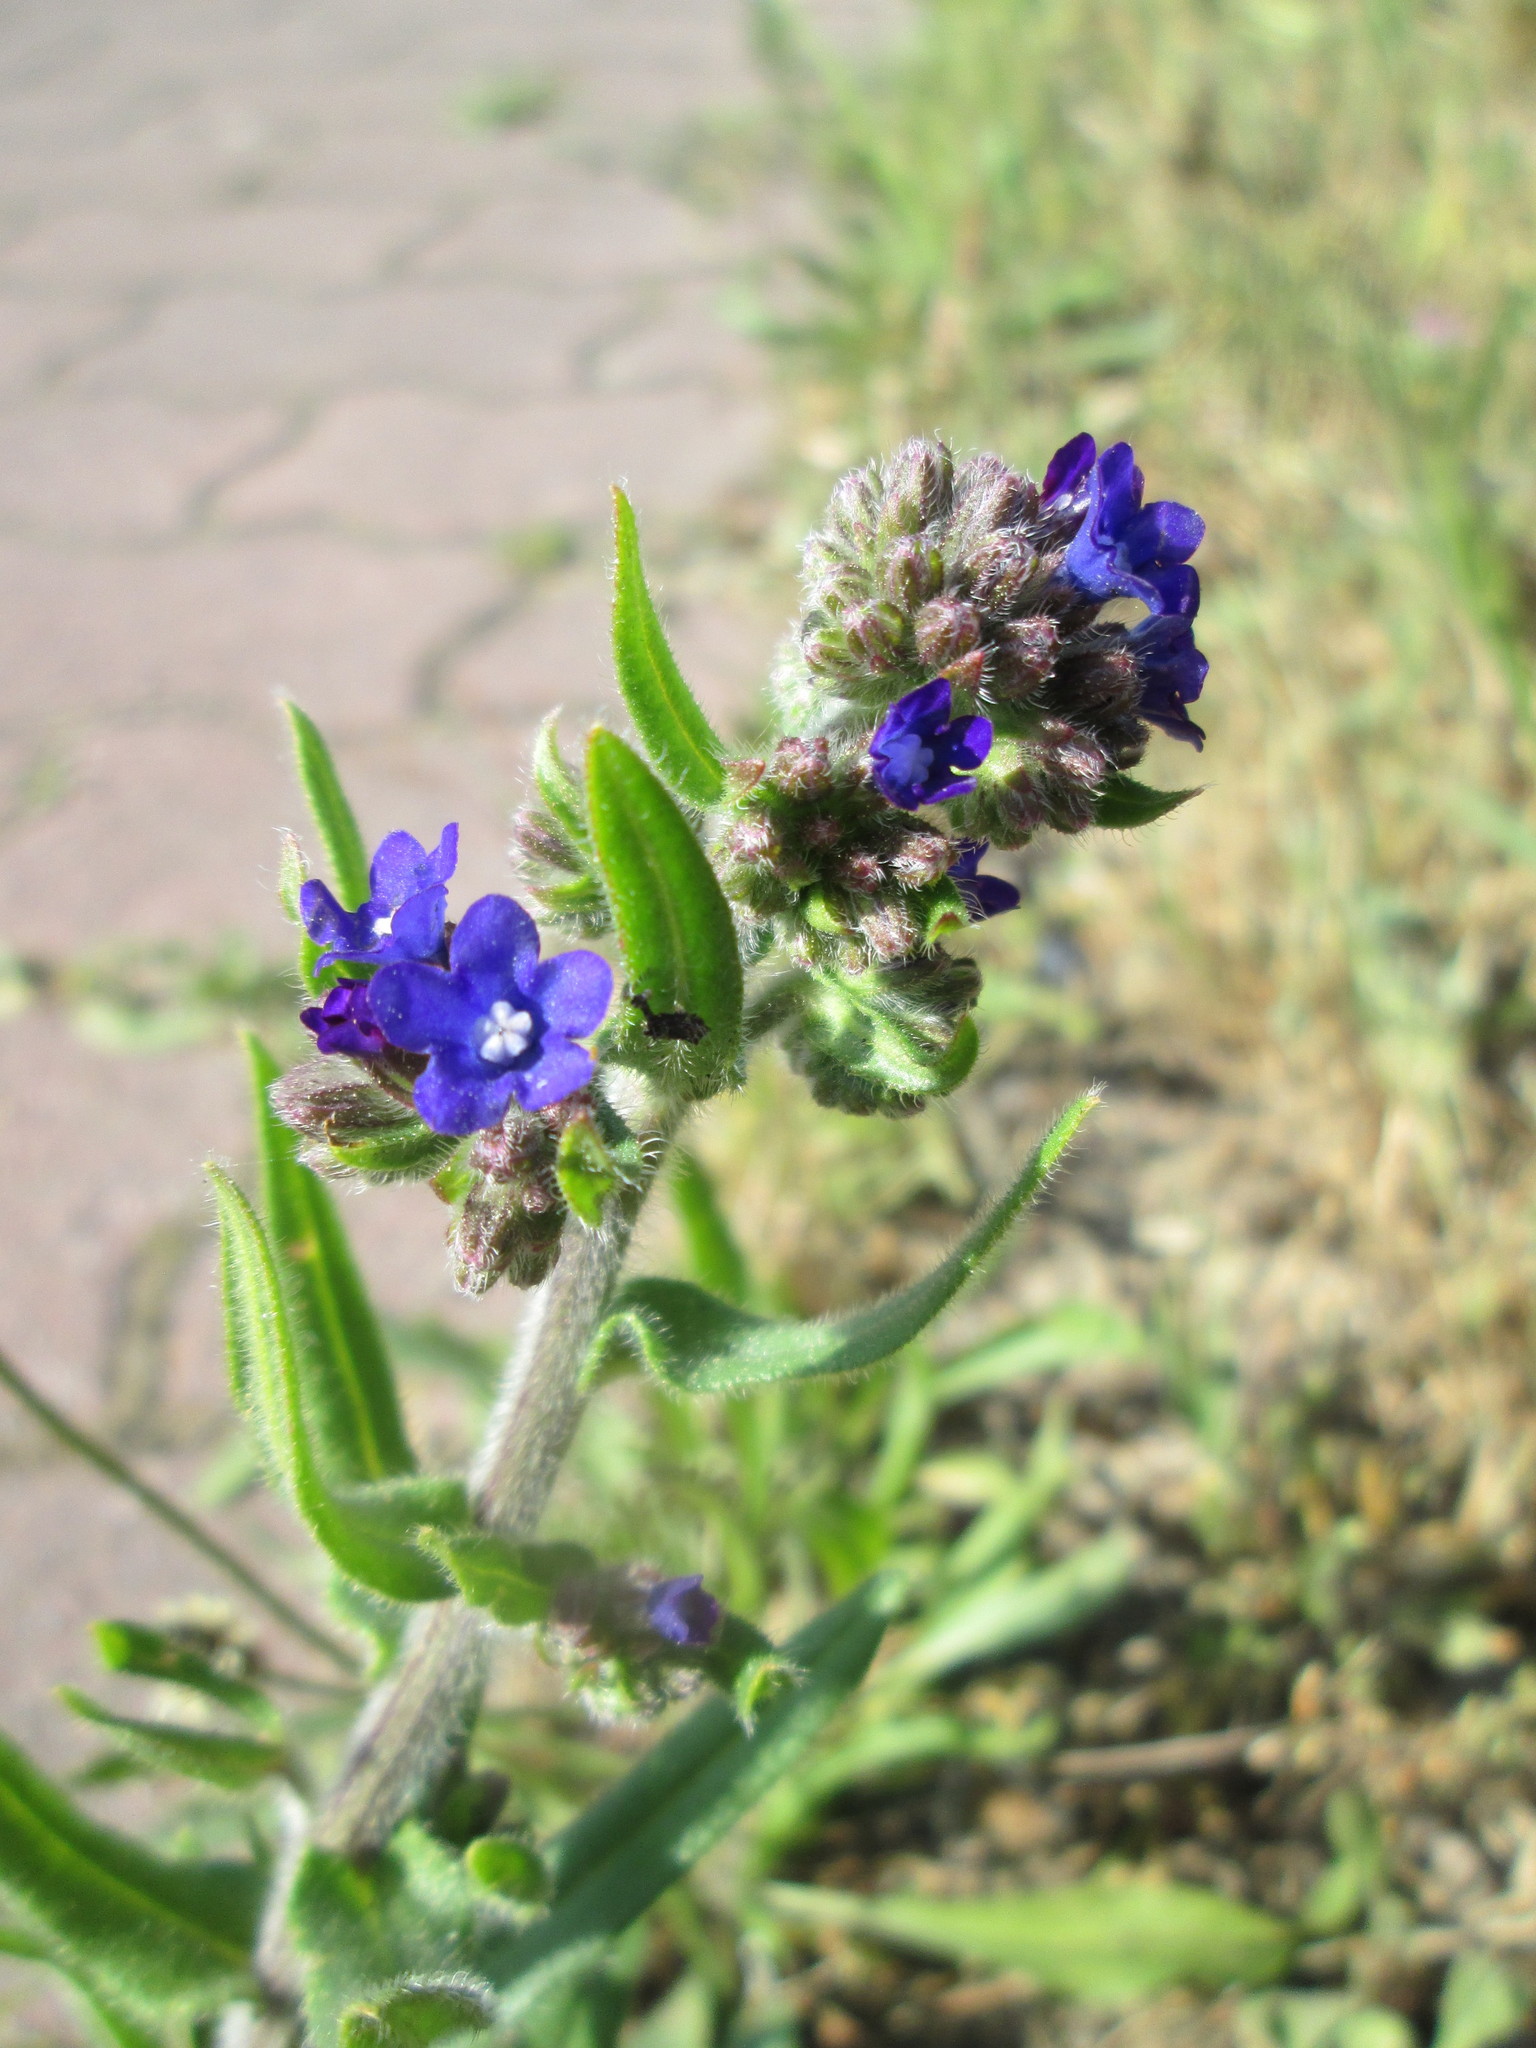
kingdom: Plantae
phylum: Tracheophyta
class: Magnoliopsida
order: Boraginales
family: Boraginaceae
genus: Anchusa
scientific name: Anchusa officinalis
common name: Alkanet
